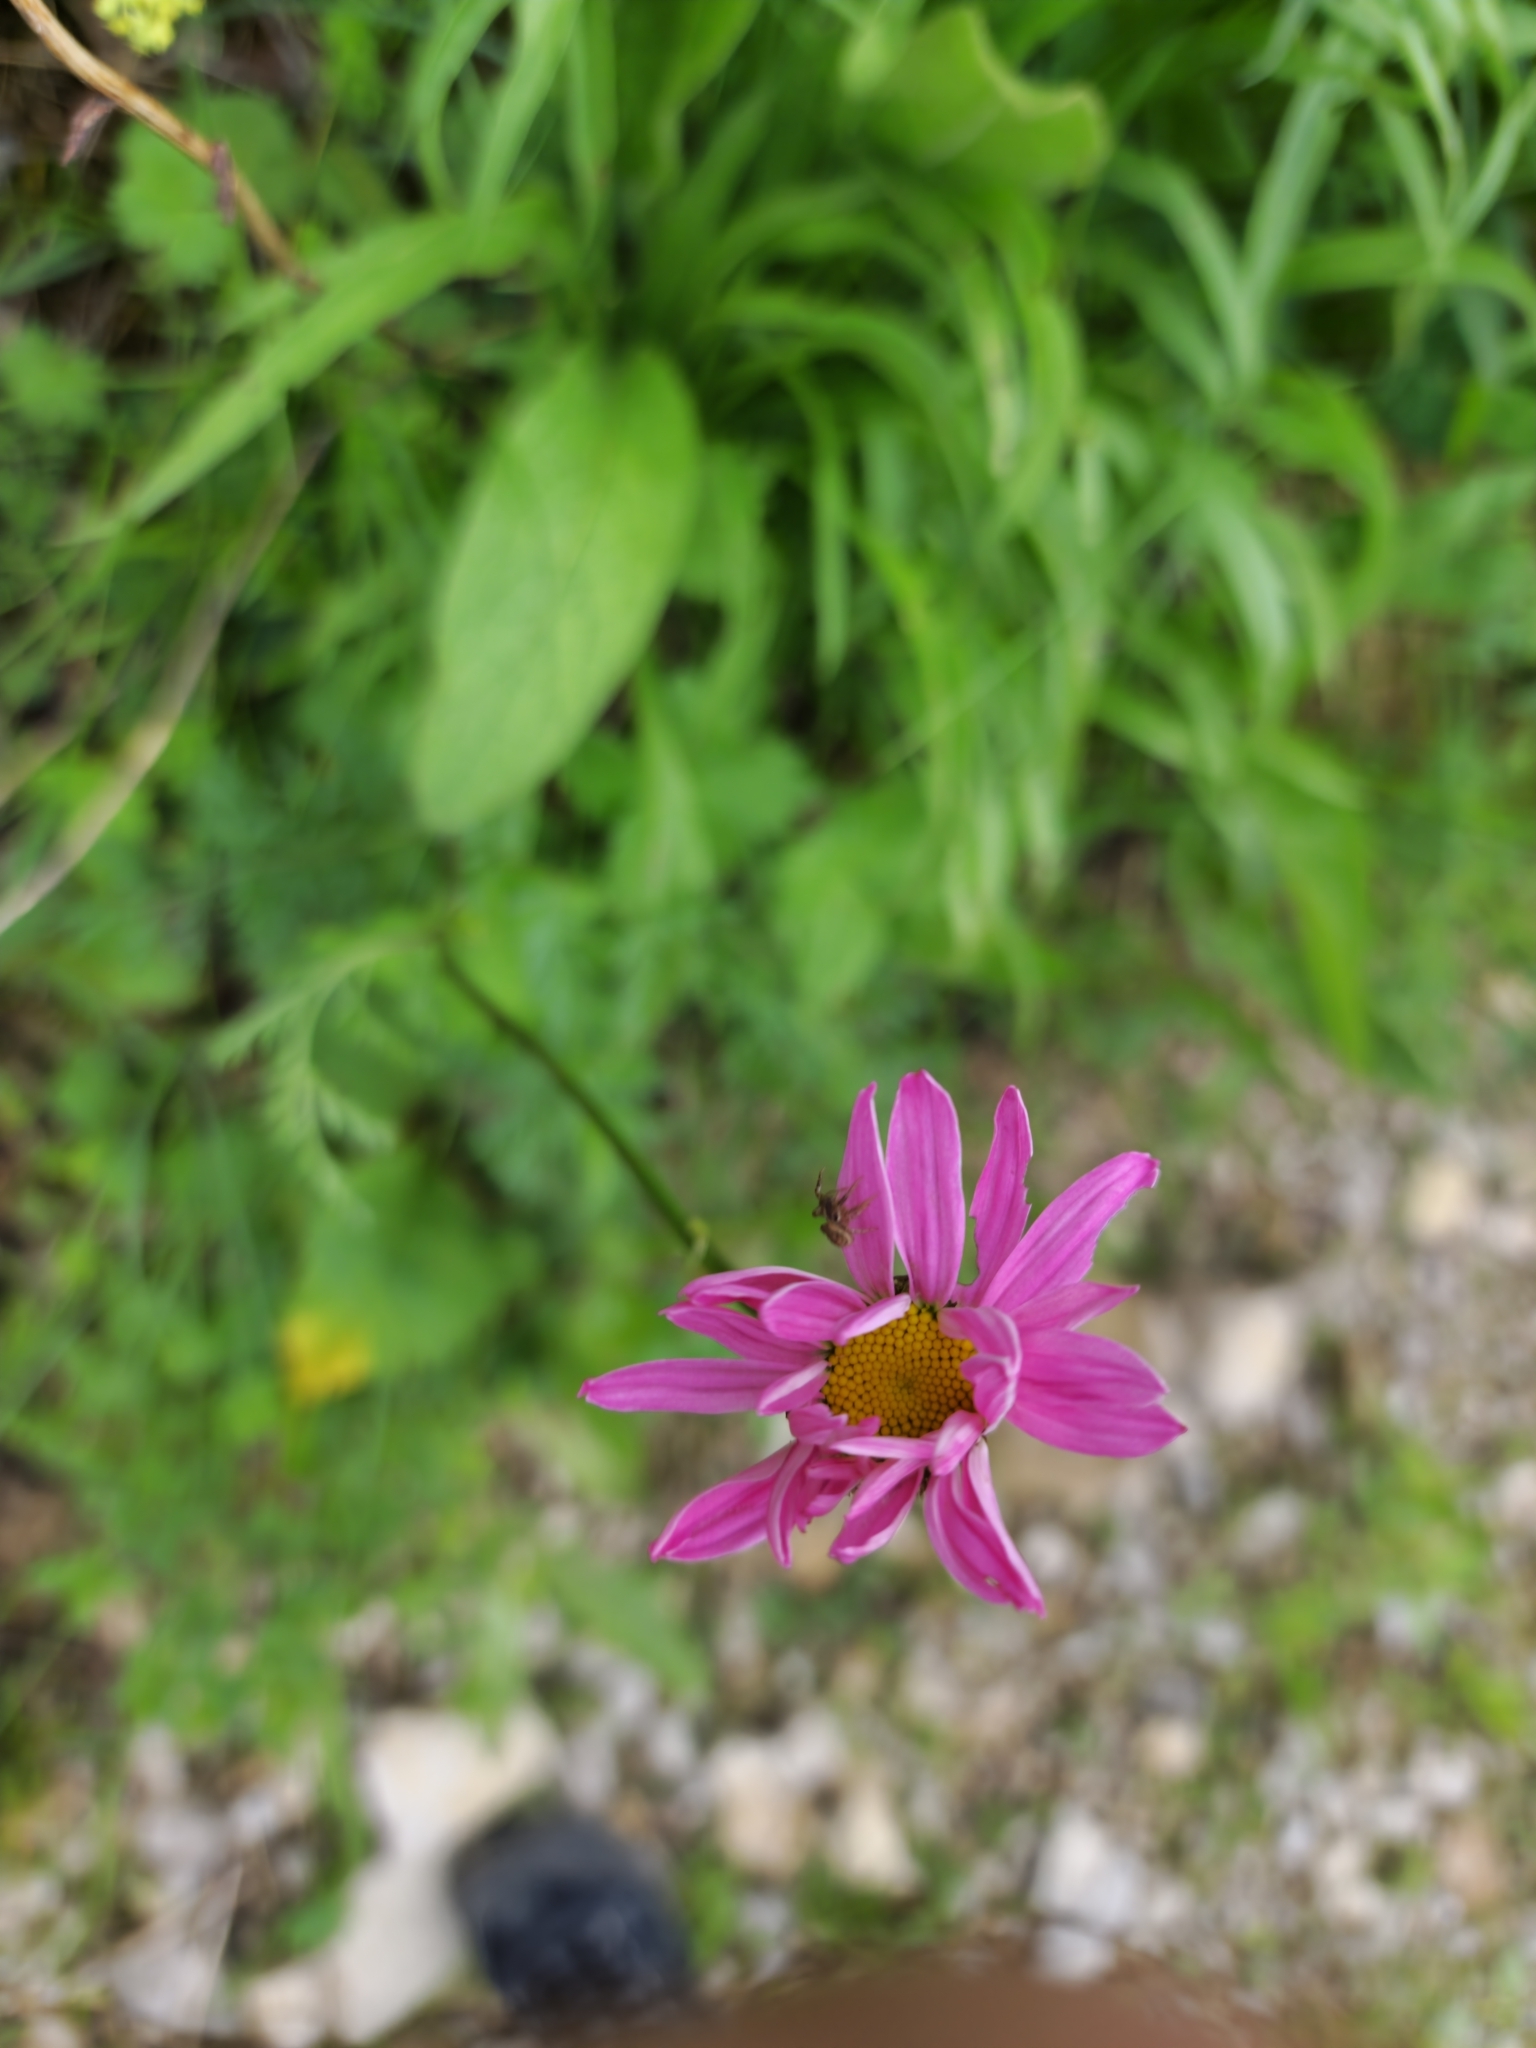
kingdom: Plantae
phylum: Tracheophyta
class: Magnoliopsida
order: Asterales
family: Asteraceae
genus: Tanacetum
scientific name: Tanacetum coccineum
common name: Pyrethum daisy
